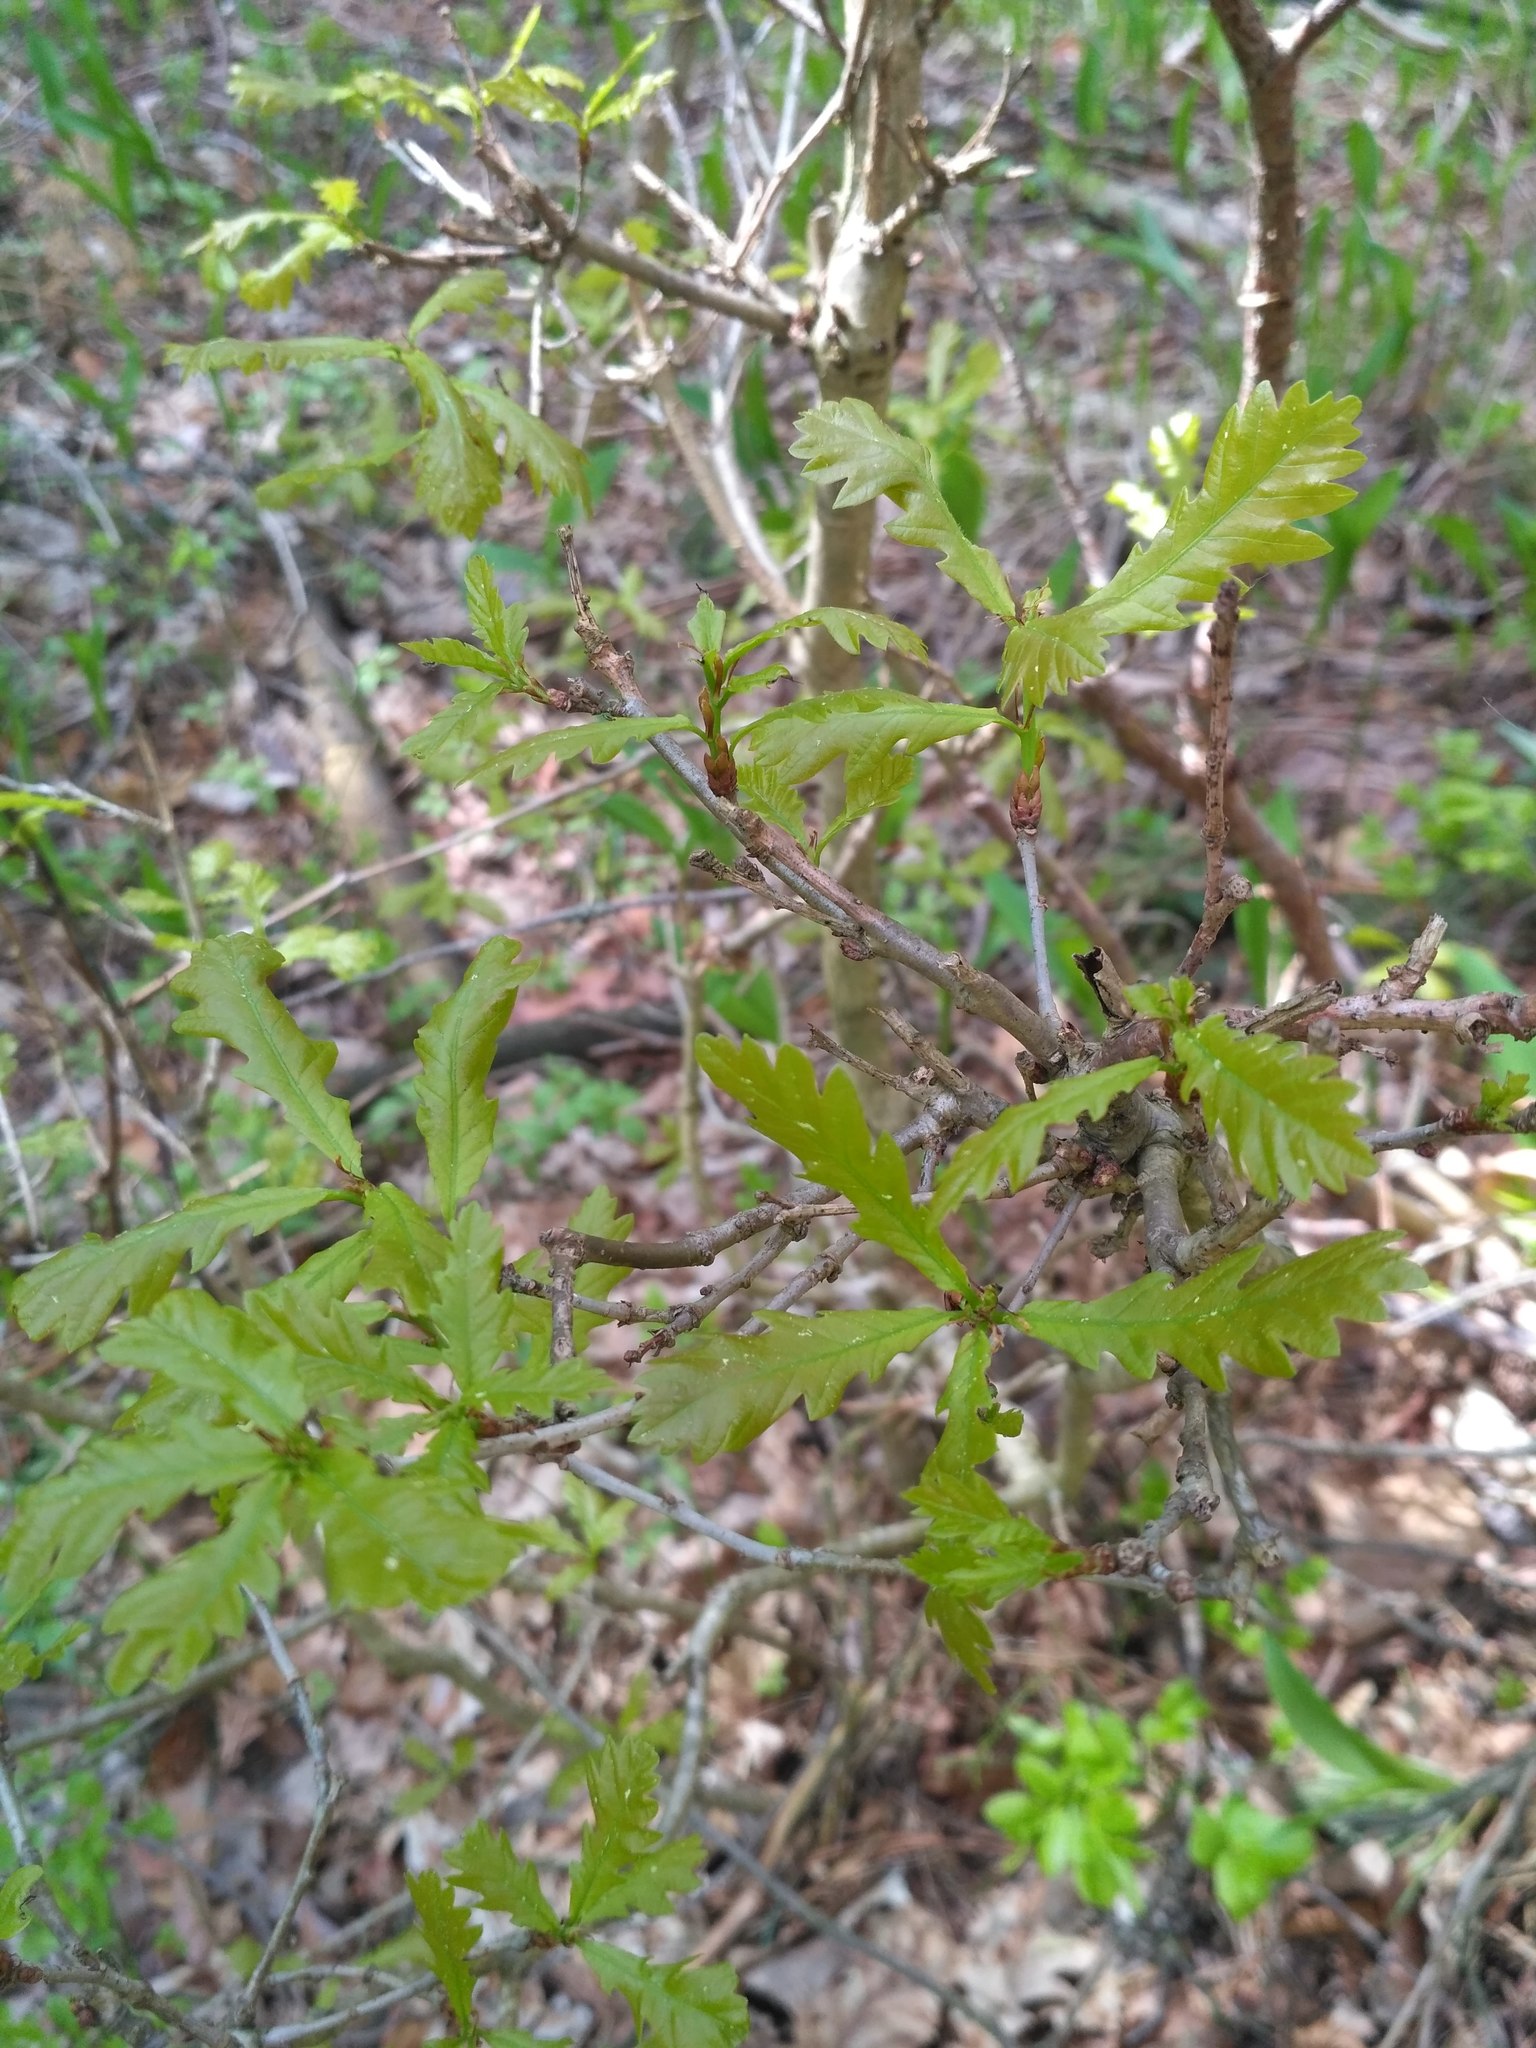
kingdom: Plantae
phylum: Tracheophyta
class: Magnoliopsida
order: Fagales
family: Fagaceae
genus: Quercus
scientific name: Quercus robur
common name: Pedunculate oak
